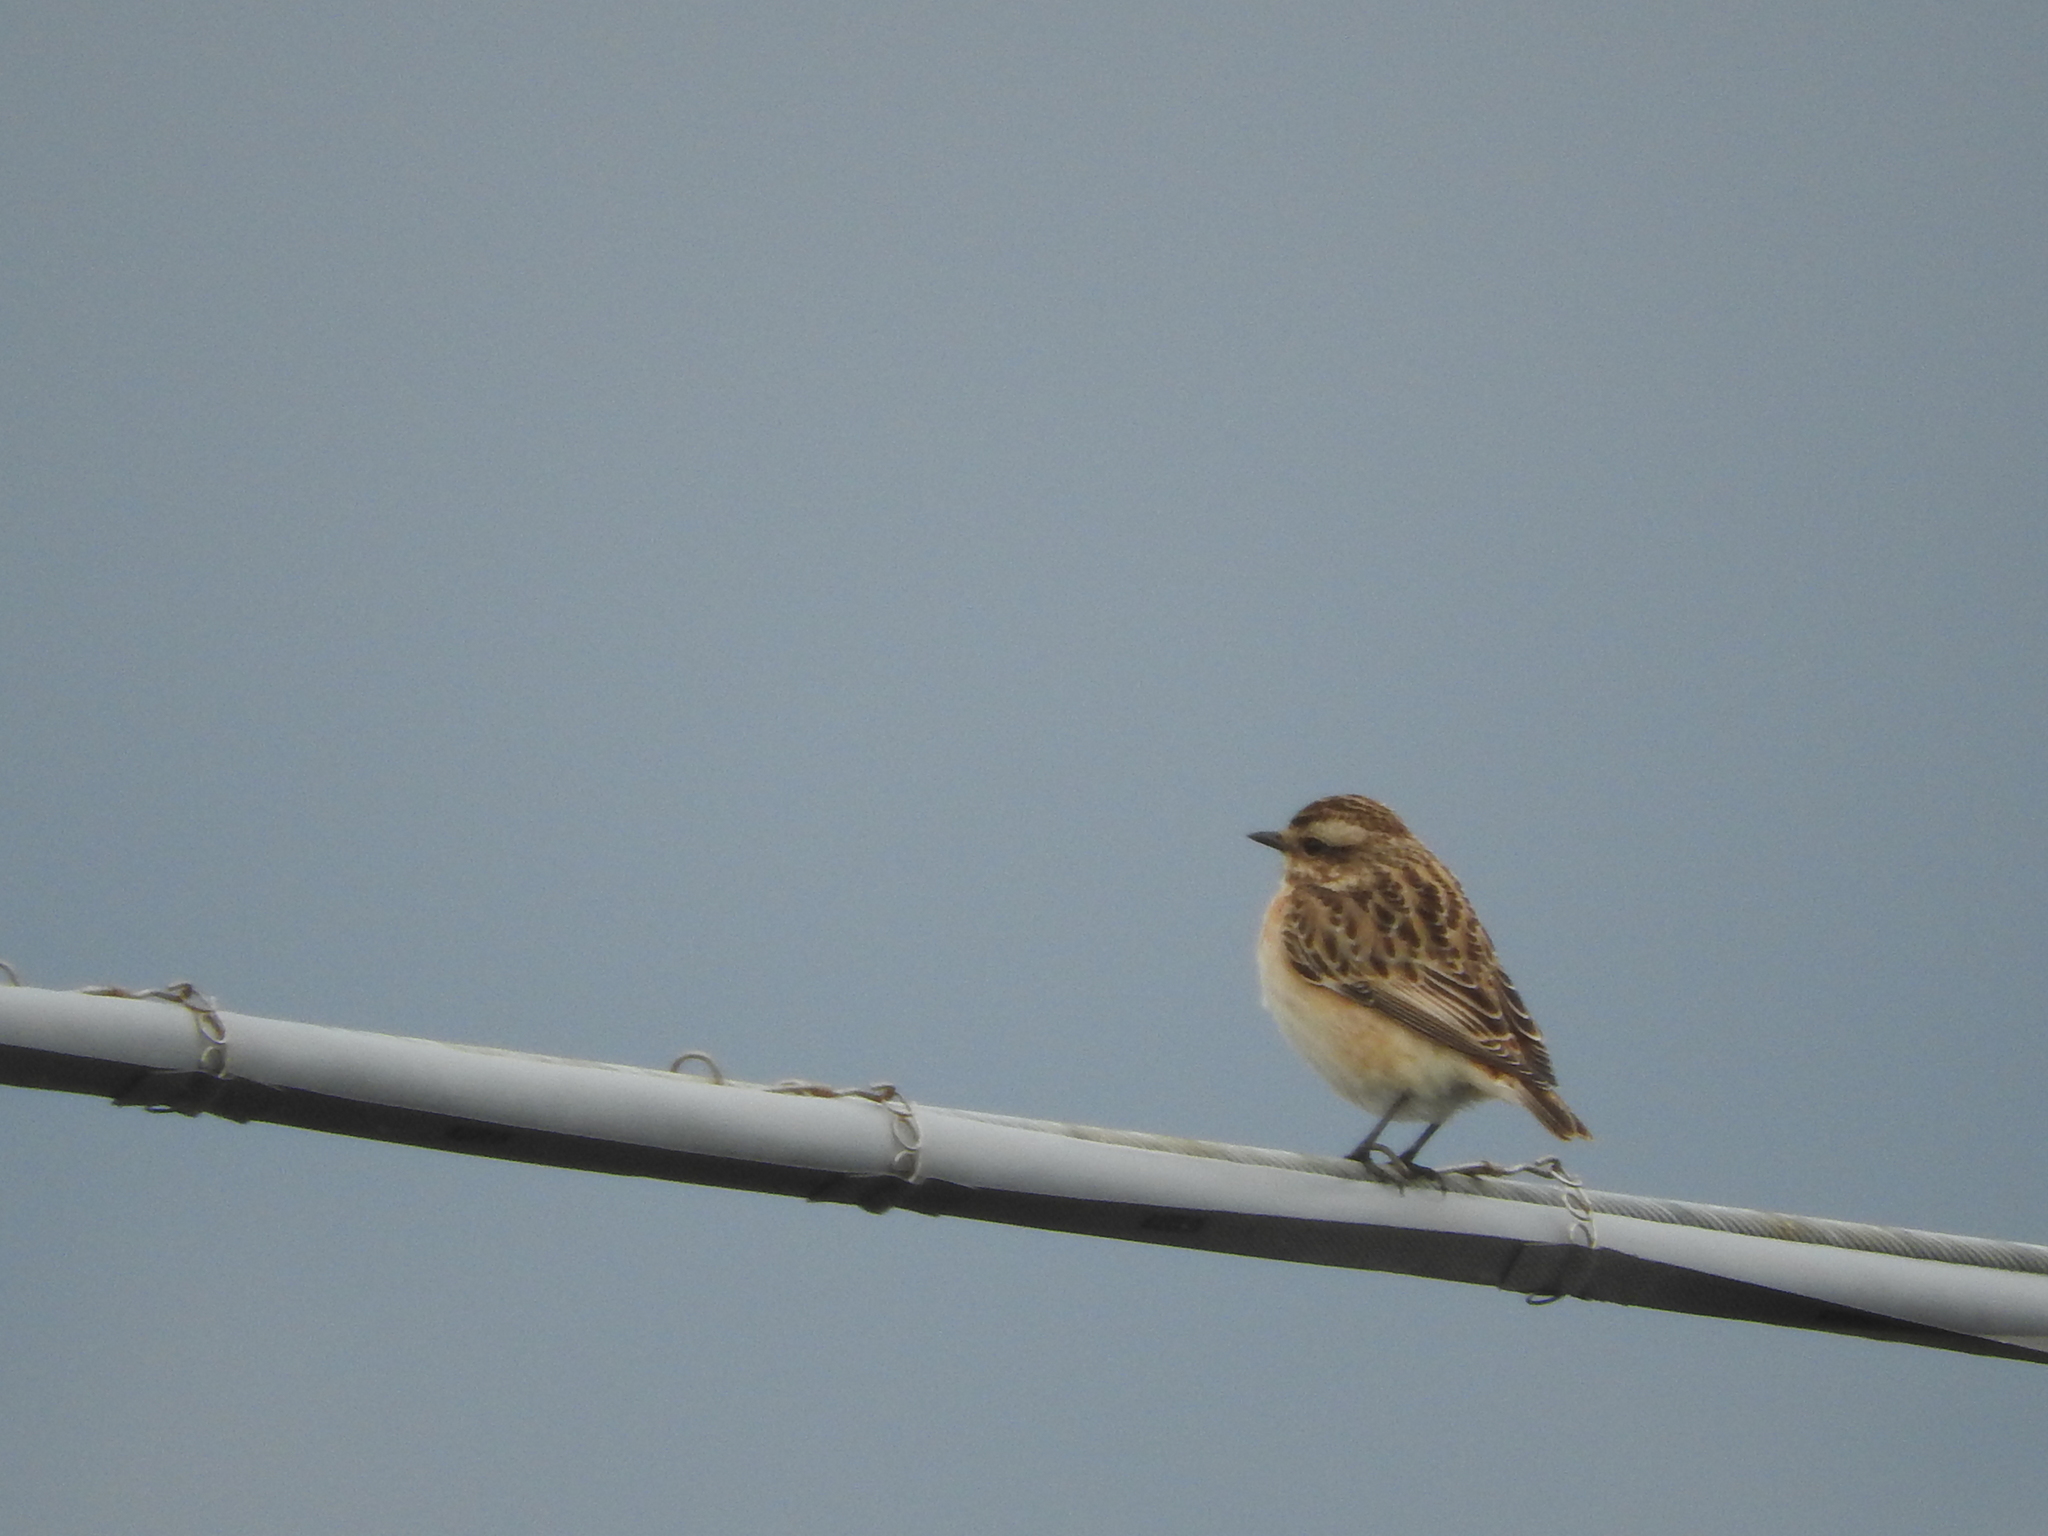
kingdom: Animalia
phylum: Chordata
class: Aves
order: Passeriformes
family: Muscicapidae
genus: Saxicola
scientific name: Saxicola rubetra
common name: Whinchat
